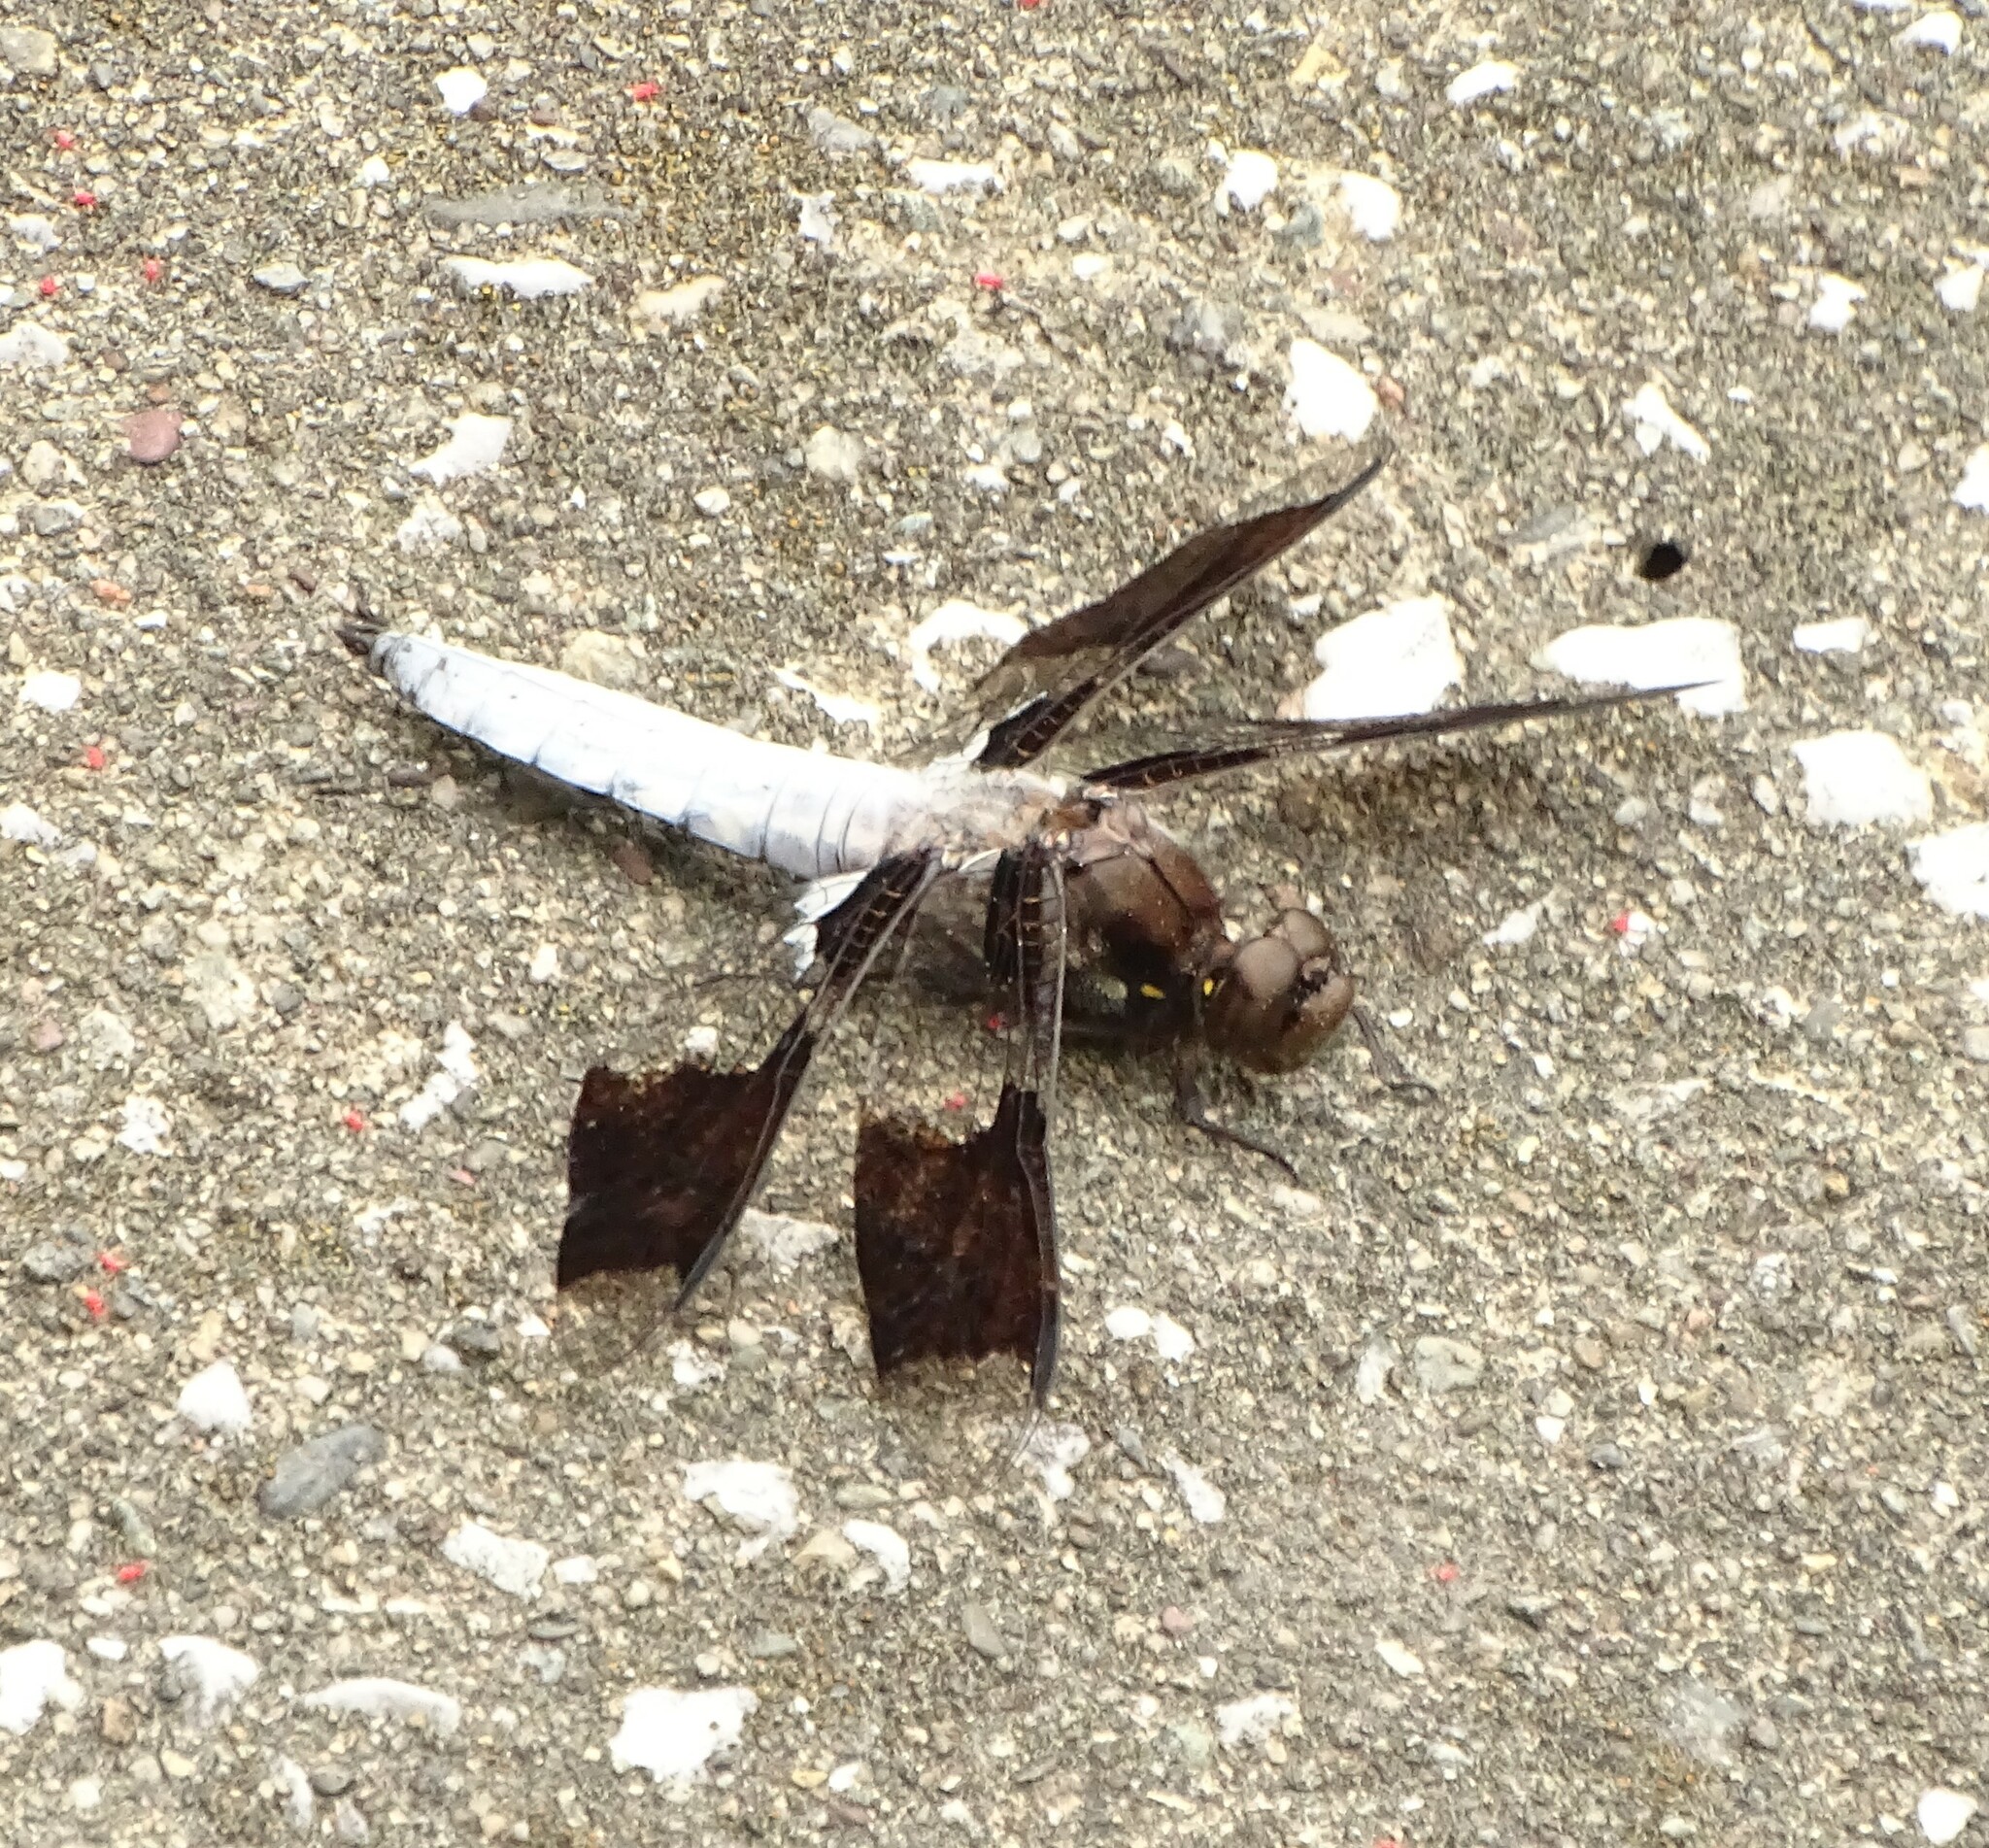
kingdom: Animalia
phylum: Arthropoda
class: Insecta
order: Odonata
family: Libellulidae
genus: Plathemis
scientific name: Plathemis lydia
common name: Common whitetail
